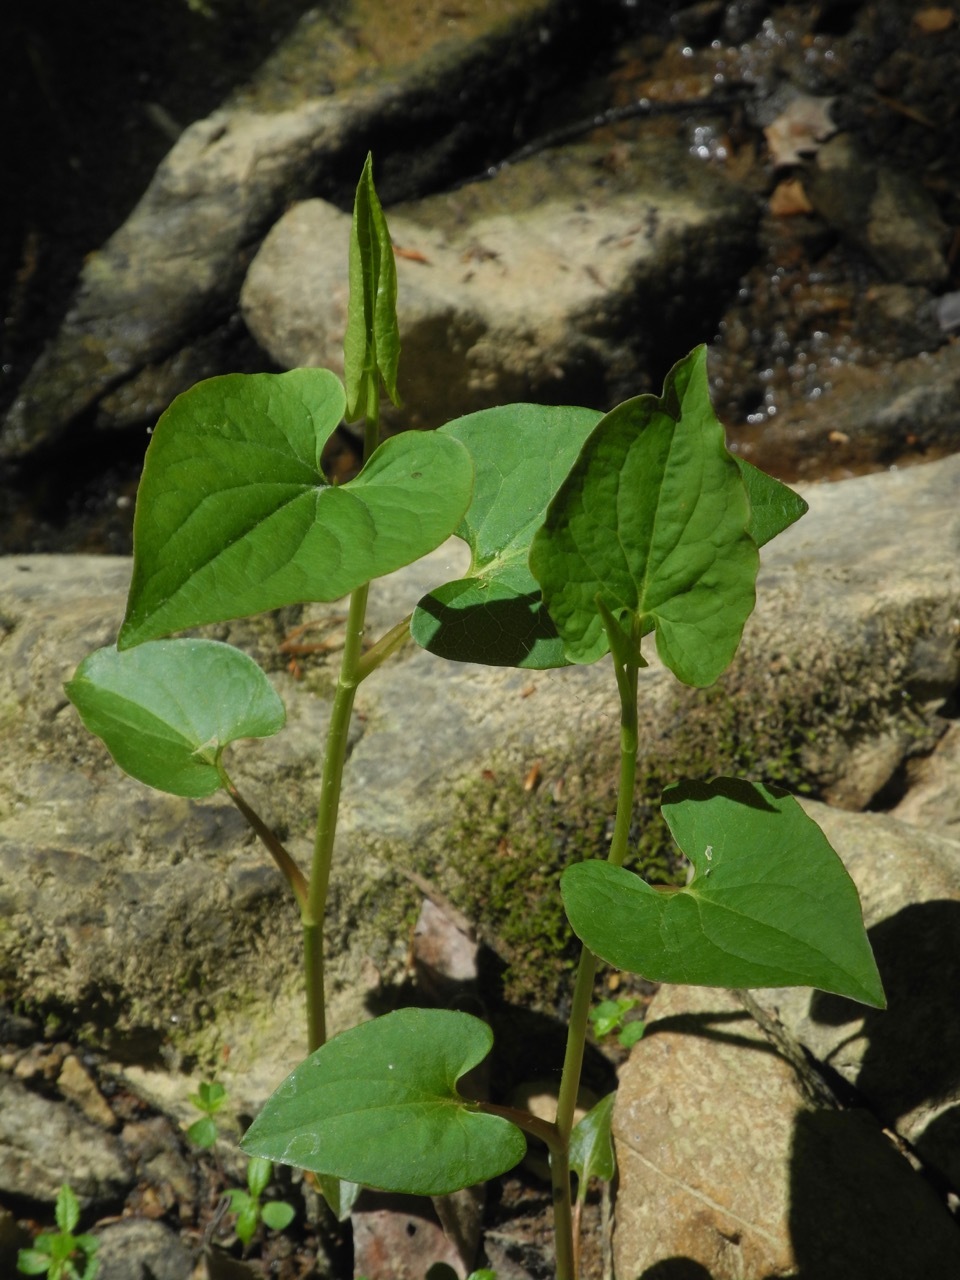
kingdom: Plantae
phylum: Tracheophyta
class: Magnoliopsida
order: Piperales
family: Saururaceae
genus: Saururus
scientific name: Saururus cernuus
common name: Lizard's-tail
